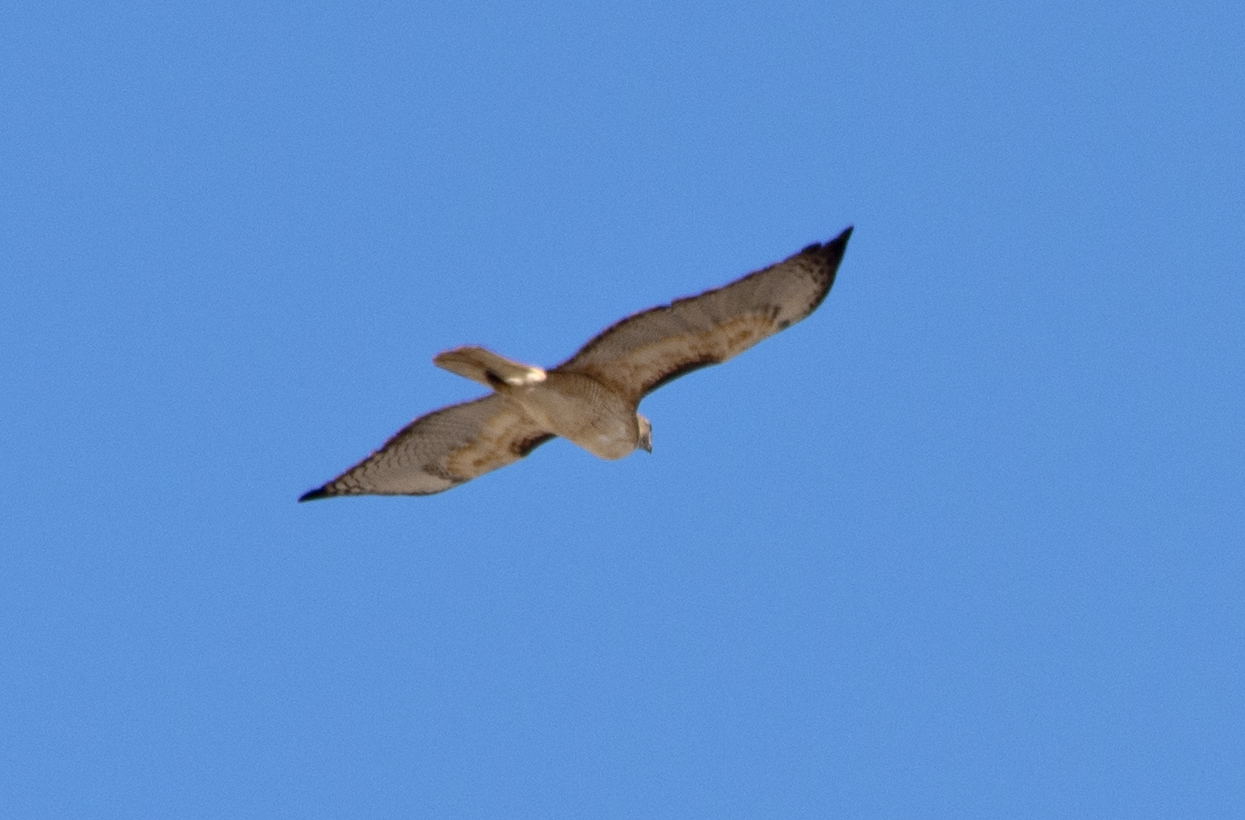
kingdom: Animalia
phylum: Chordata
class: Aves
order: Accipitriformes
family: Accipitridae
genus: Buteo
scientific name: Buteo jamaicensis
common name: Red-tailed hawk
